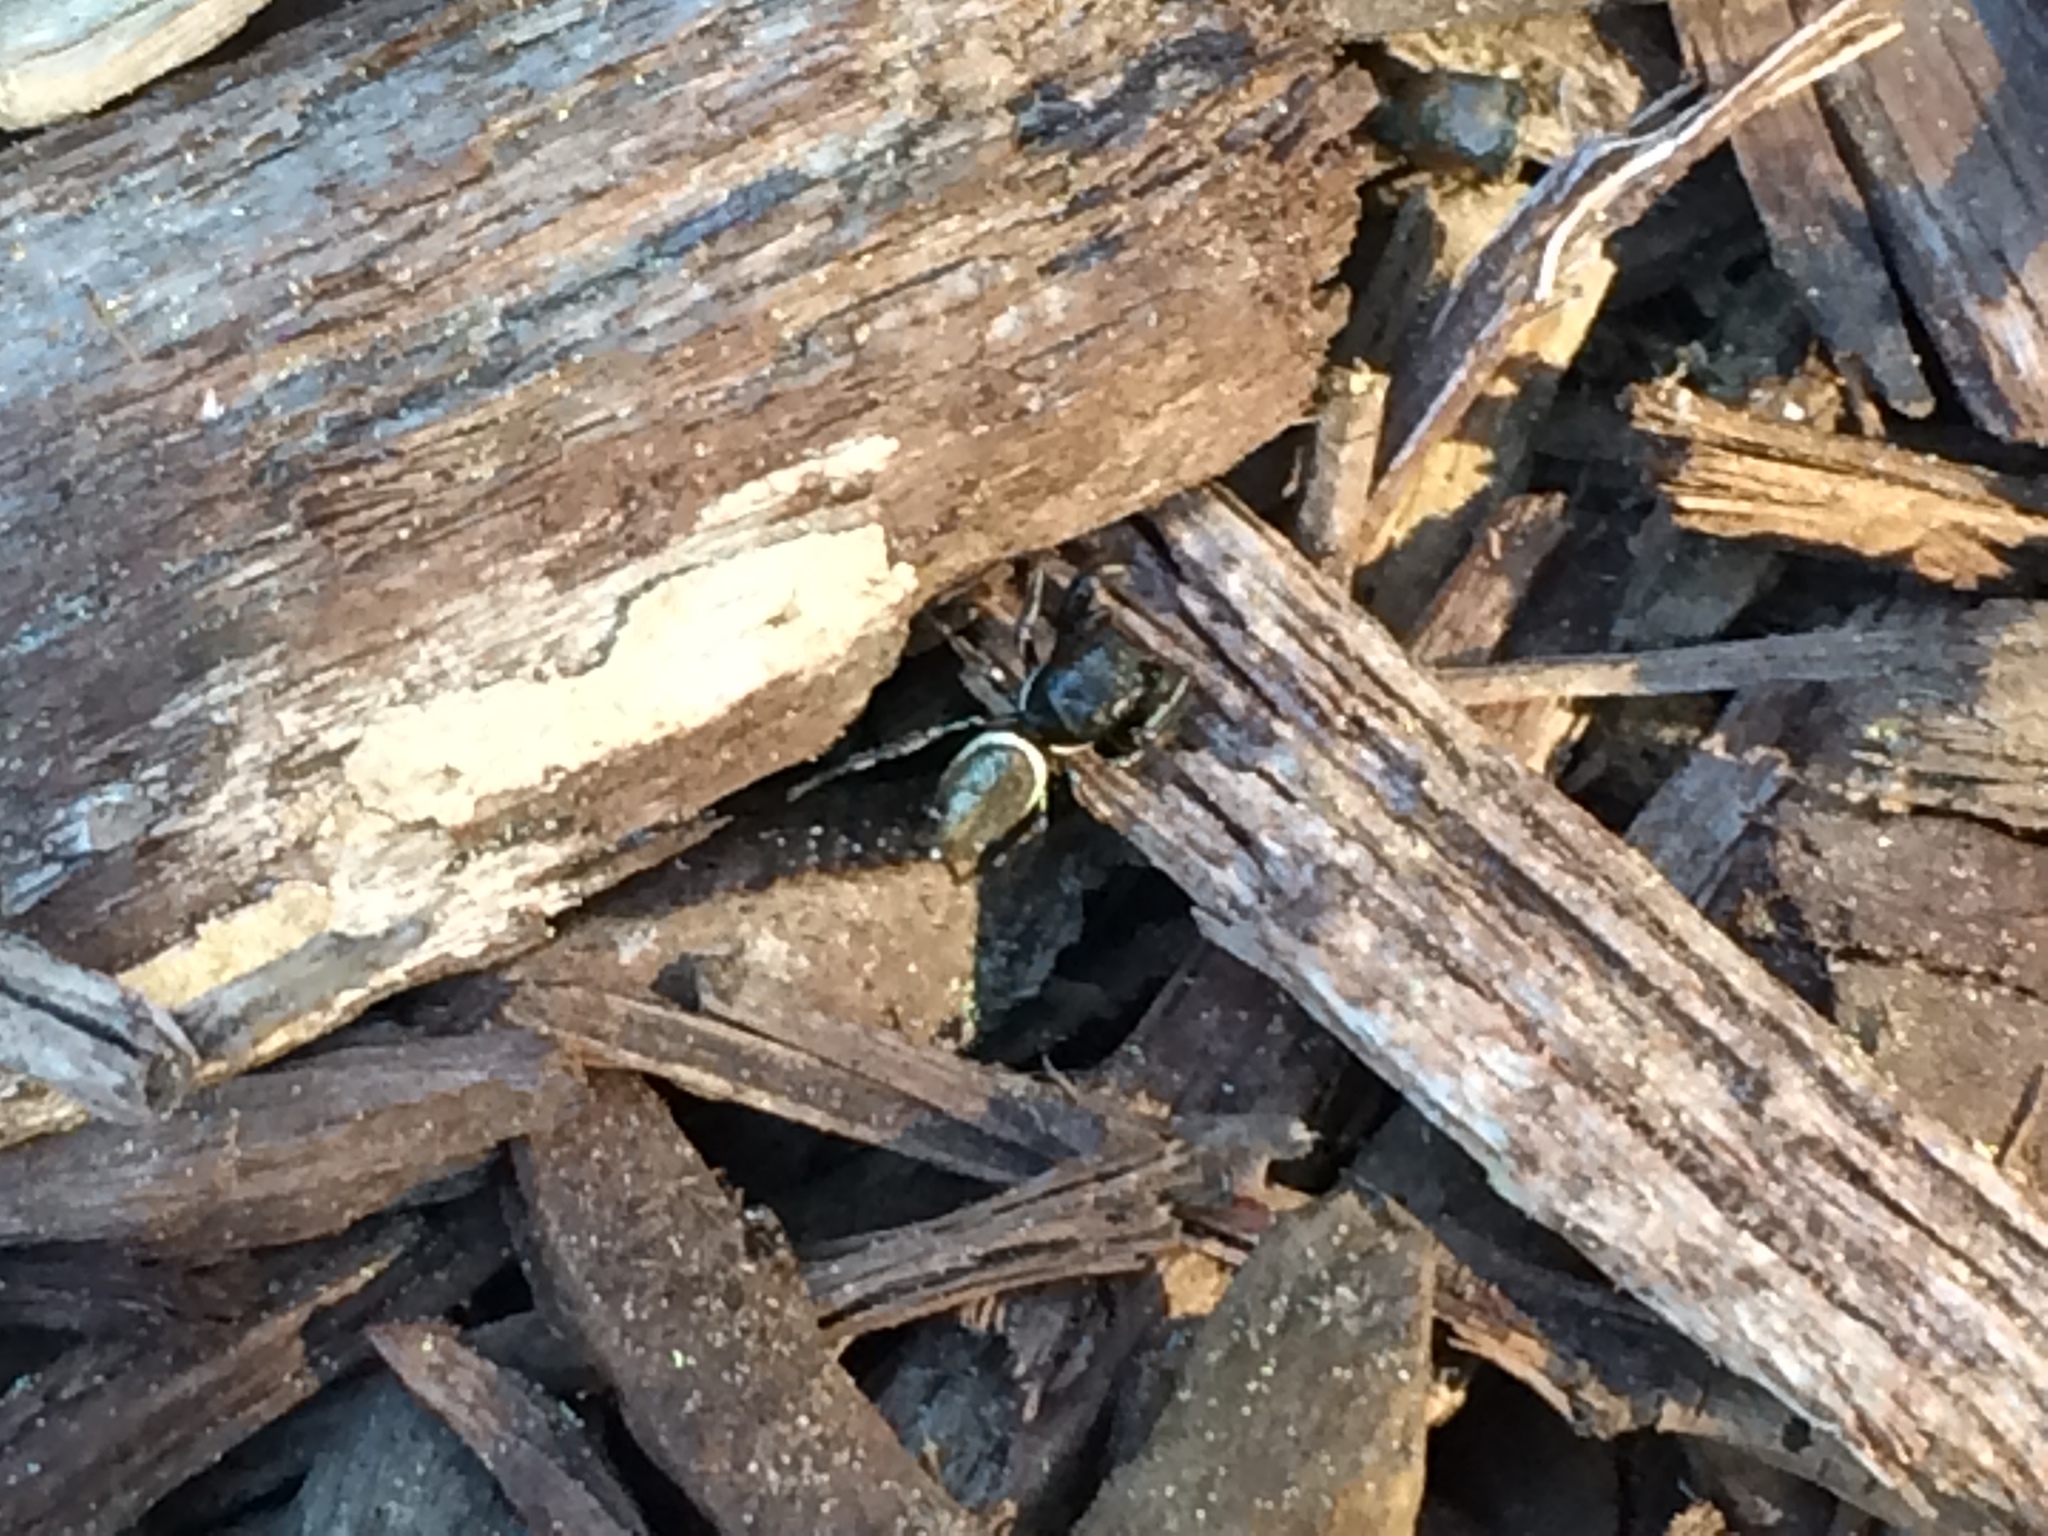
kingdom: Animalia
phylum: Arthropoda
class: Arachnida
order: Araneae
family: Salticidae
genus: Sassacus
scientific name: Sassacus vitis
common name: Jumping spiders
